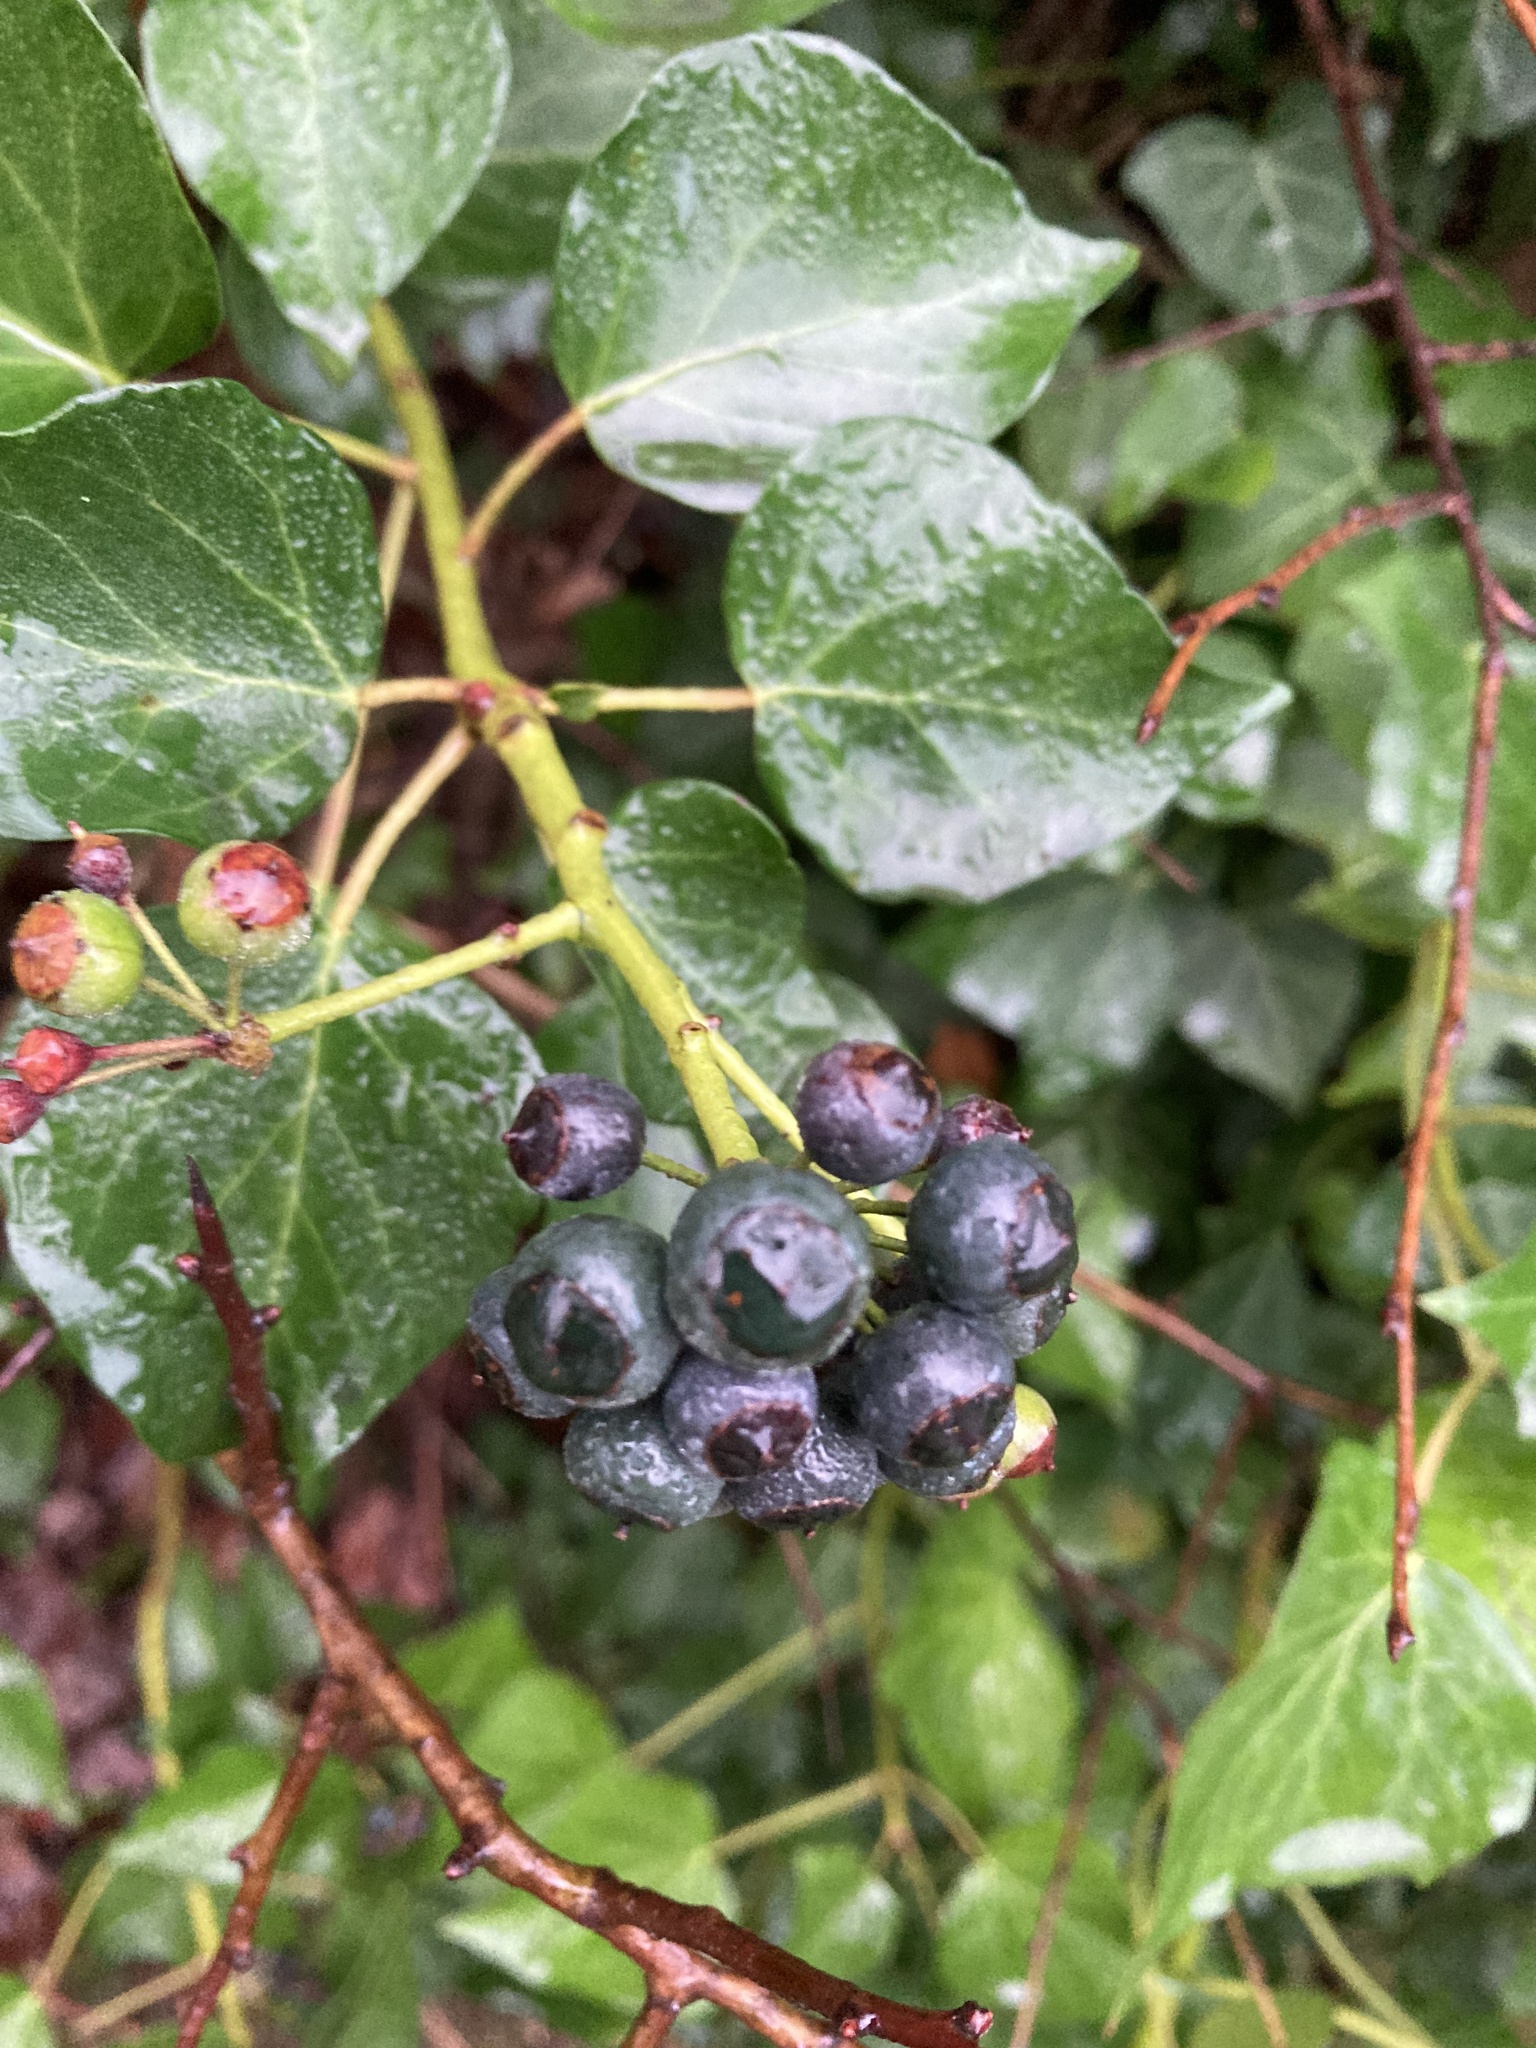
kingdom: Plantae
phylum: Tracheophyta
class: Magnoliopsida
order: Apiales
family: Araliaceae
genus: Hedera
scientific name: Hedera helix
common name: Ivy
